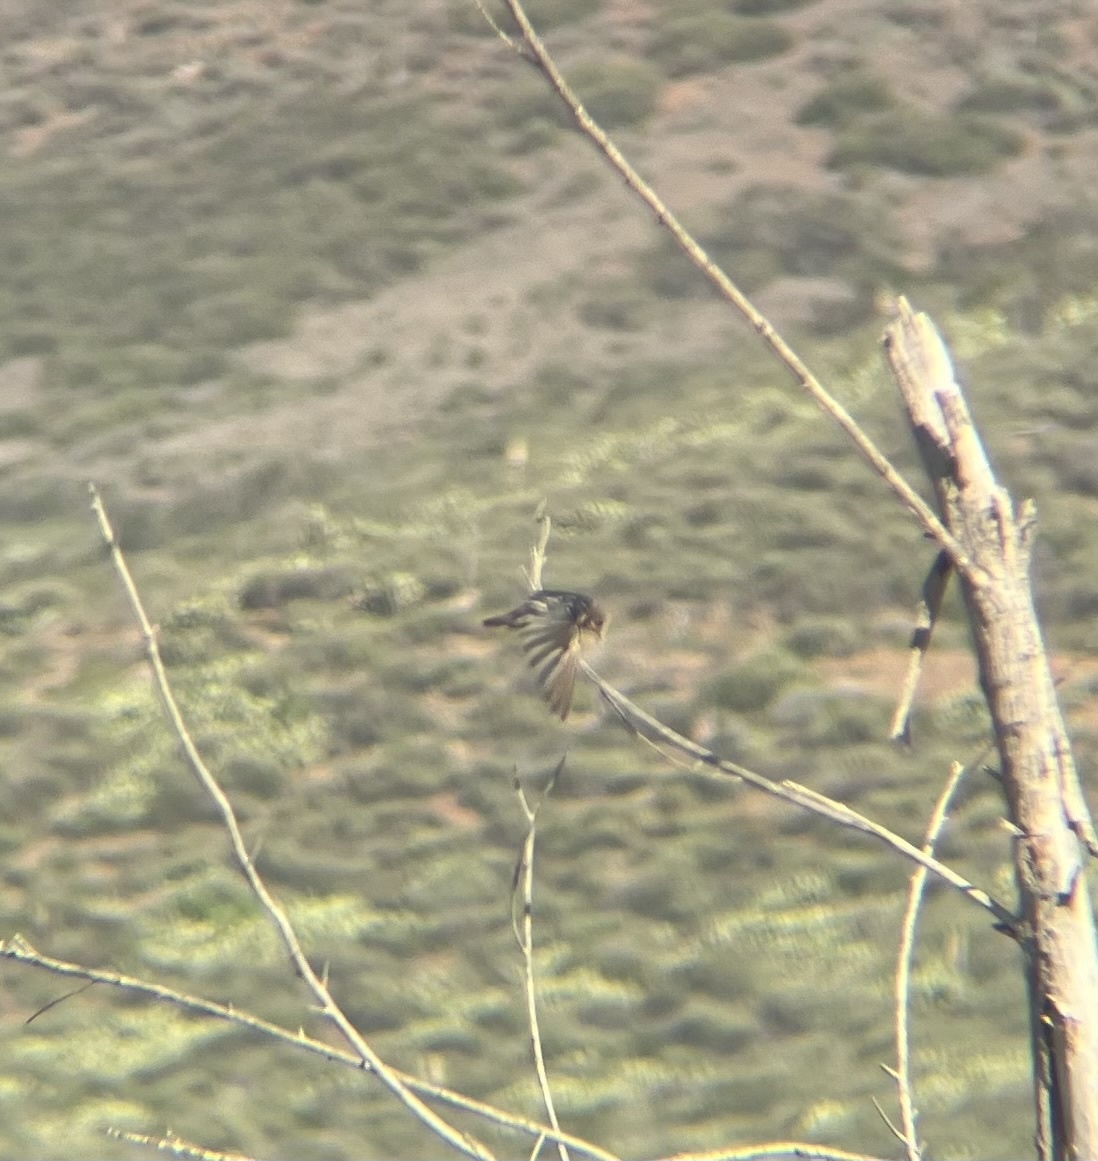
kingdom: Animalia
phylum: Chordata
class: Aves
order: Passeriformes
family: Hirundinidae
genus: Hirundo
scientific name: Hirundo rustica
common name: Barn swallow
